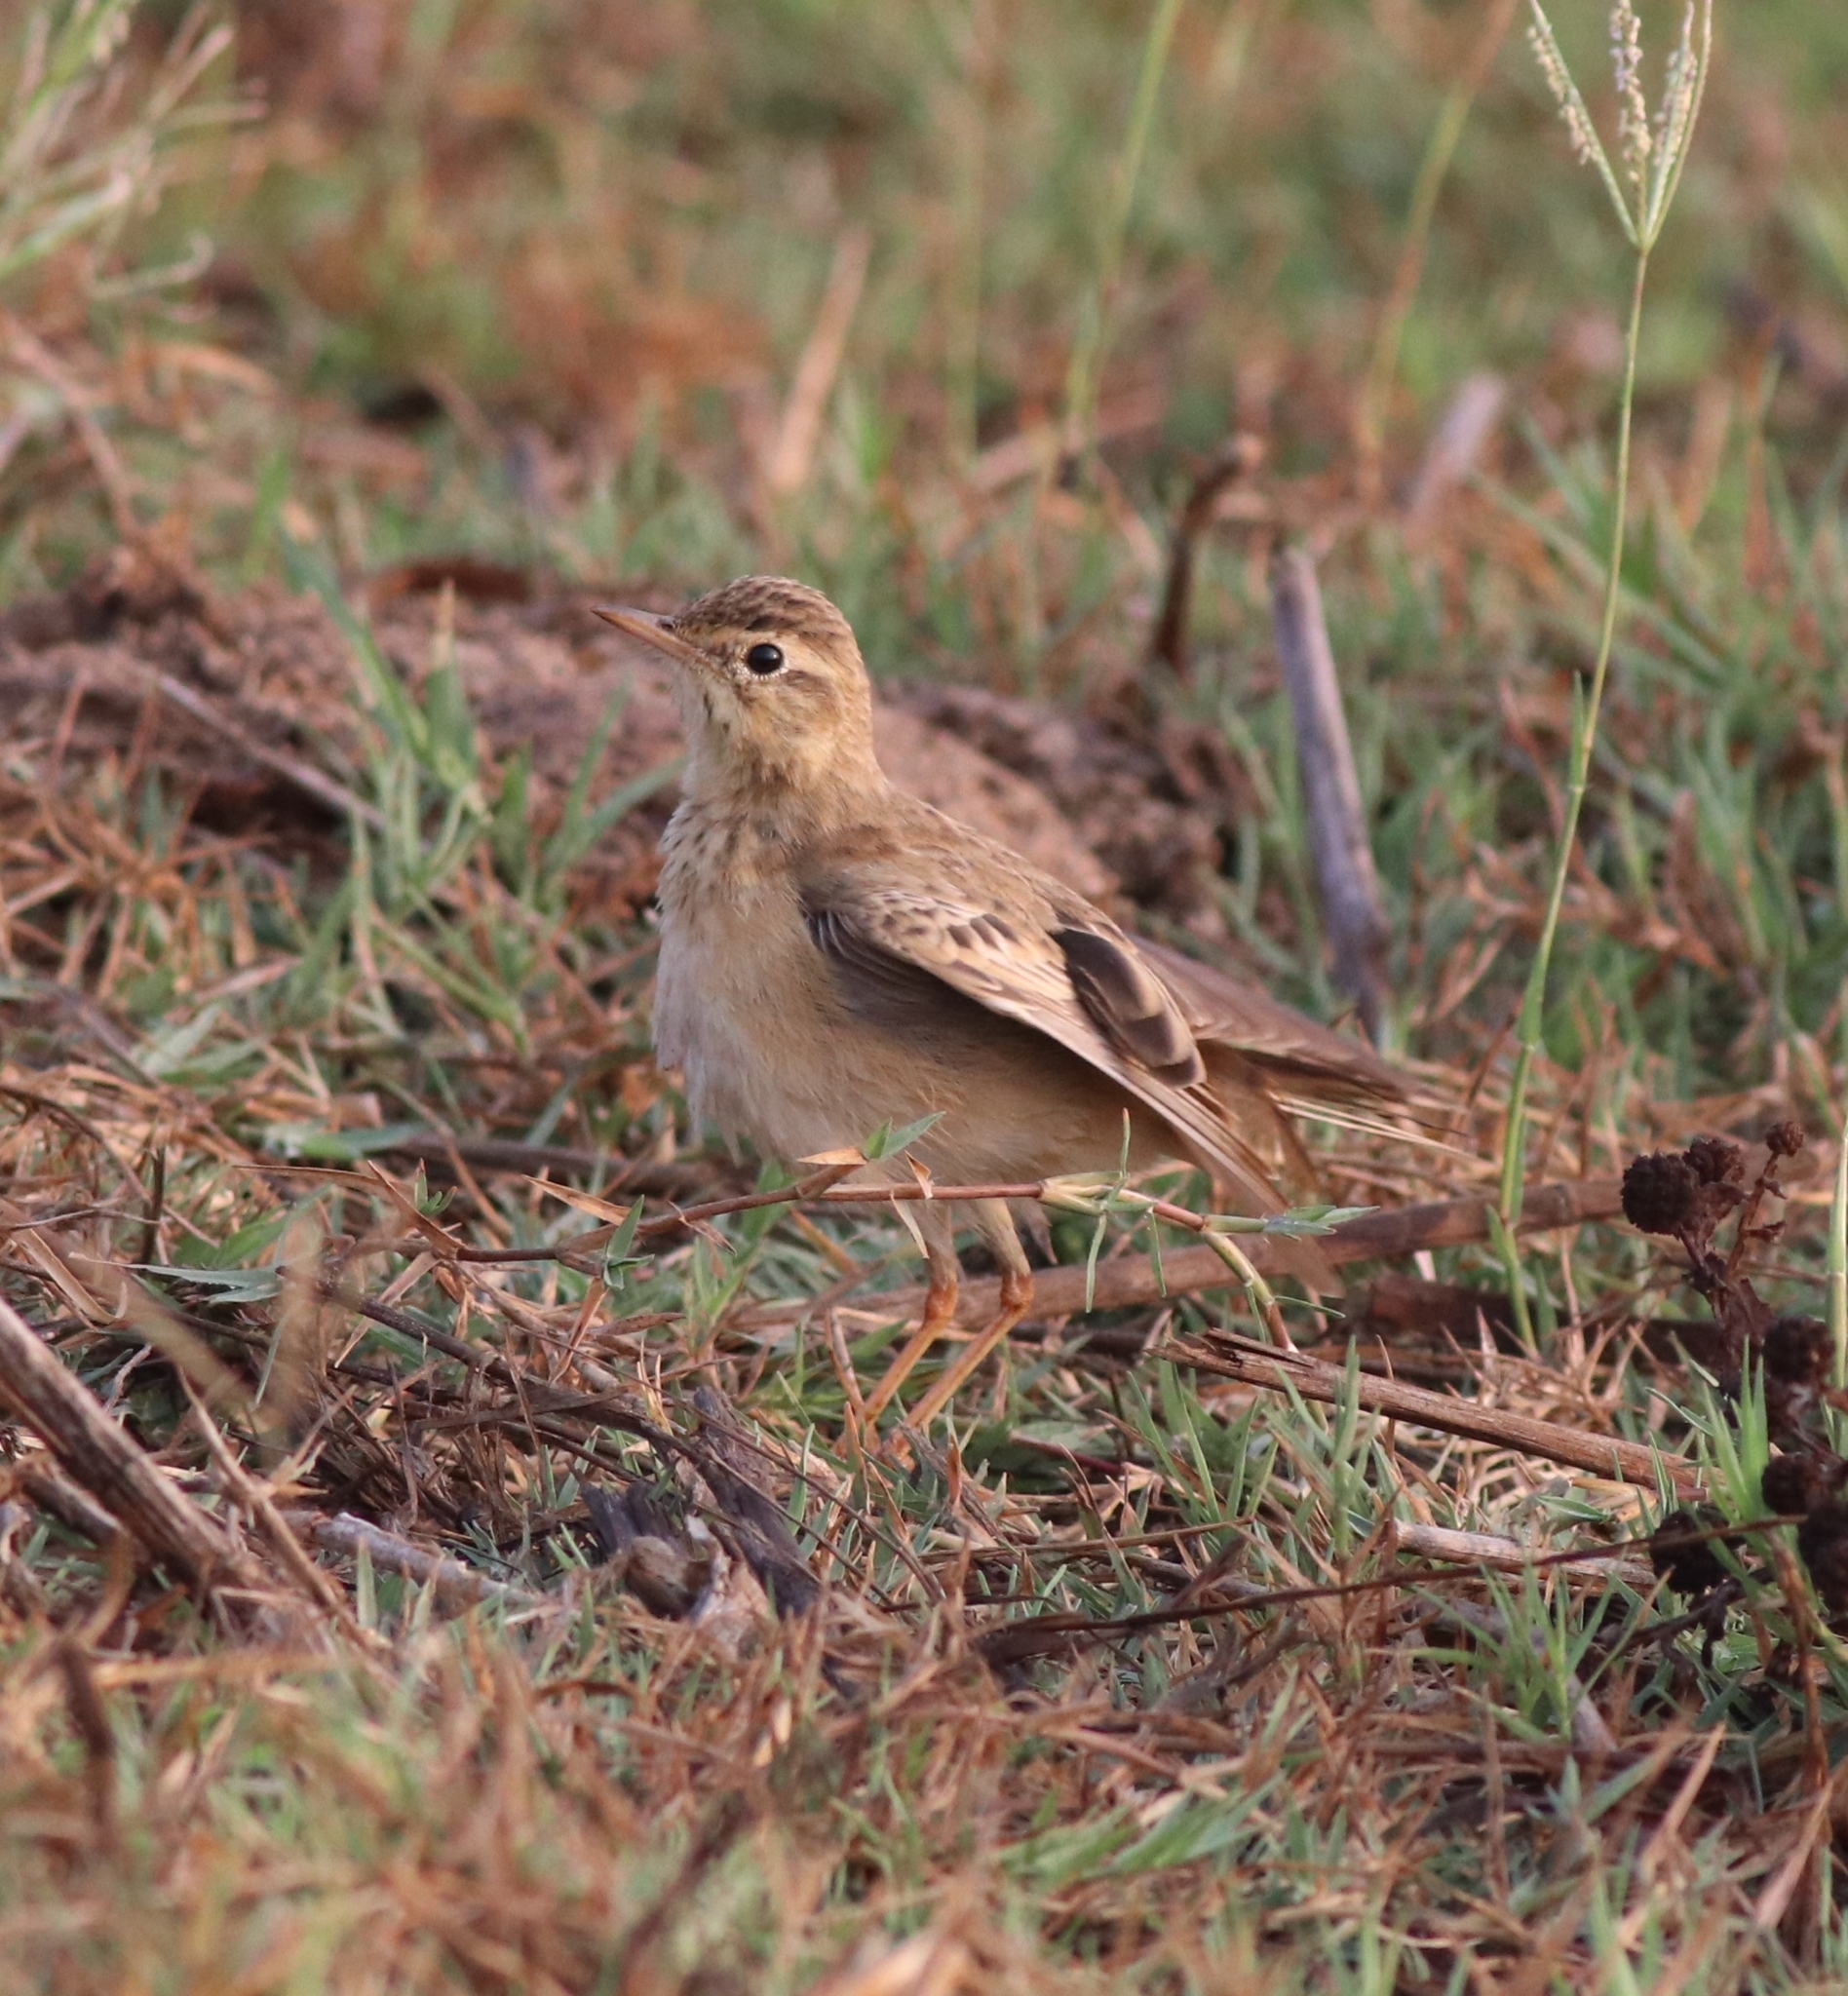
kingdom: Animalia
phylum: Chordata
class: Aves
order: Passeriformes
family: Motacillidae
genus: Anthus
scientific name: Anthus rufulus
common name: Paddyfield pipit
